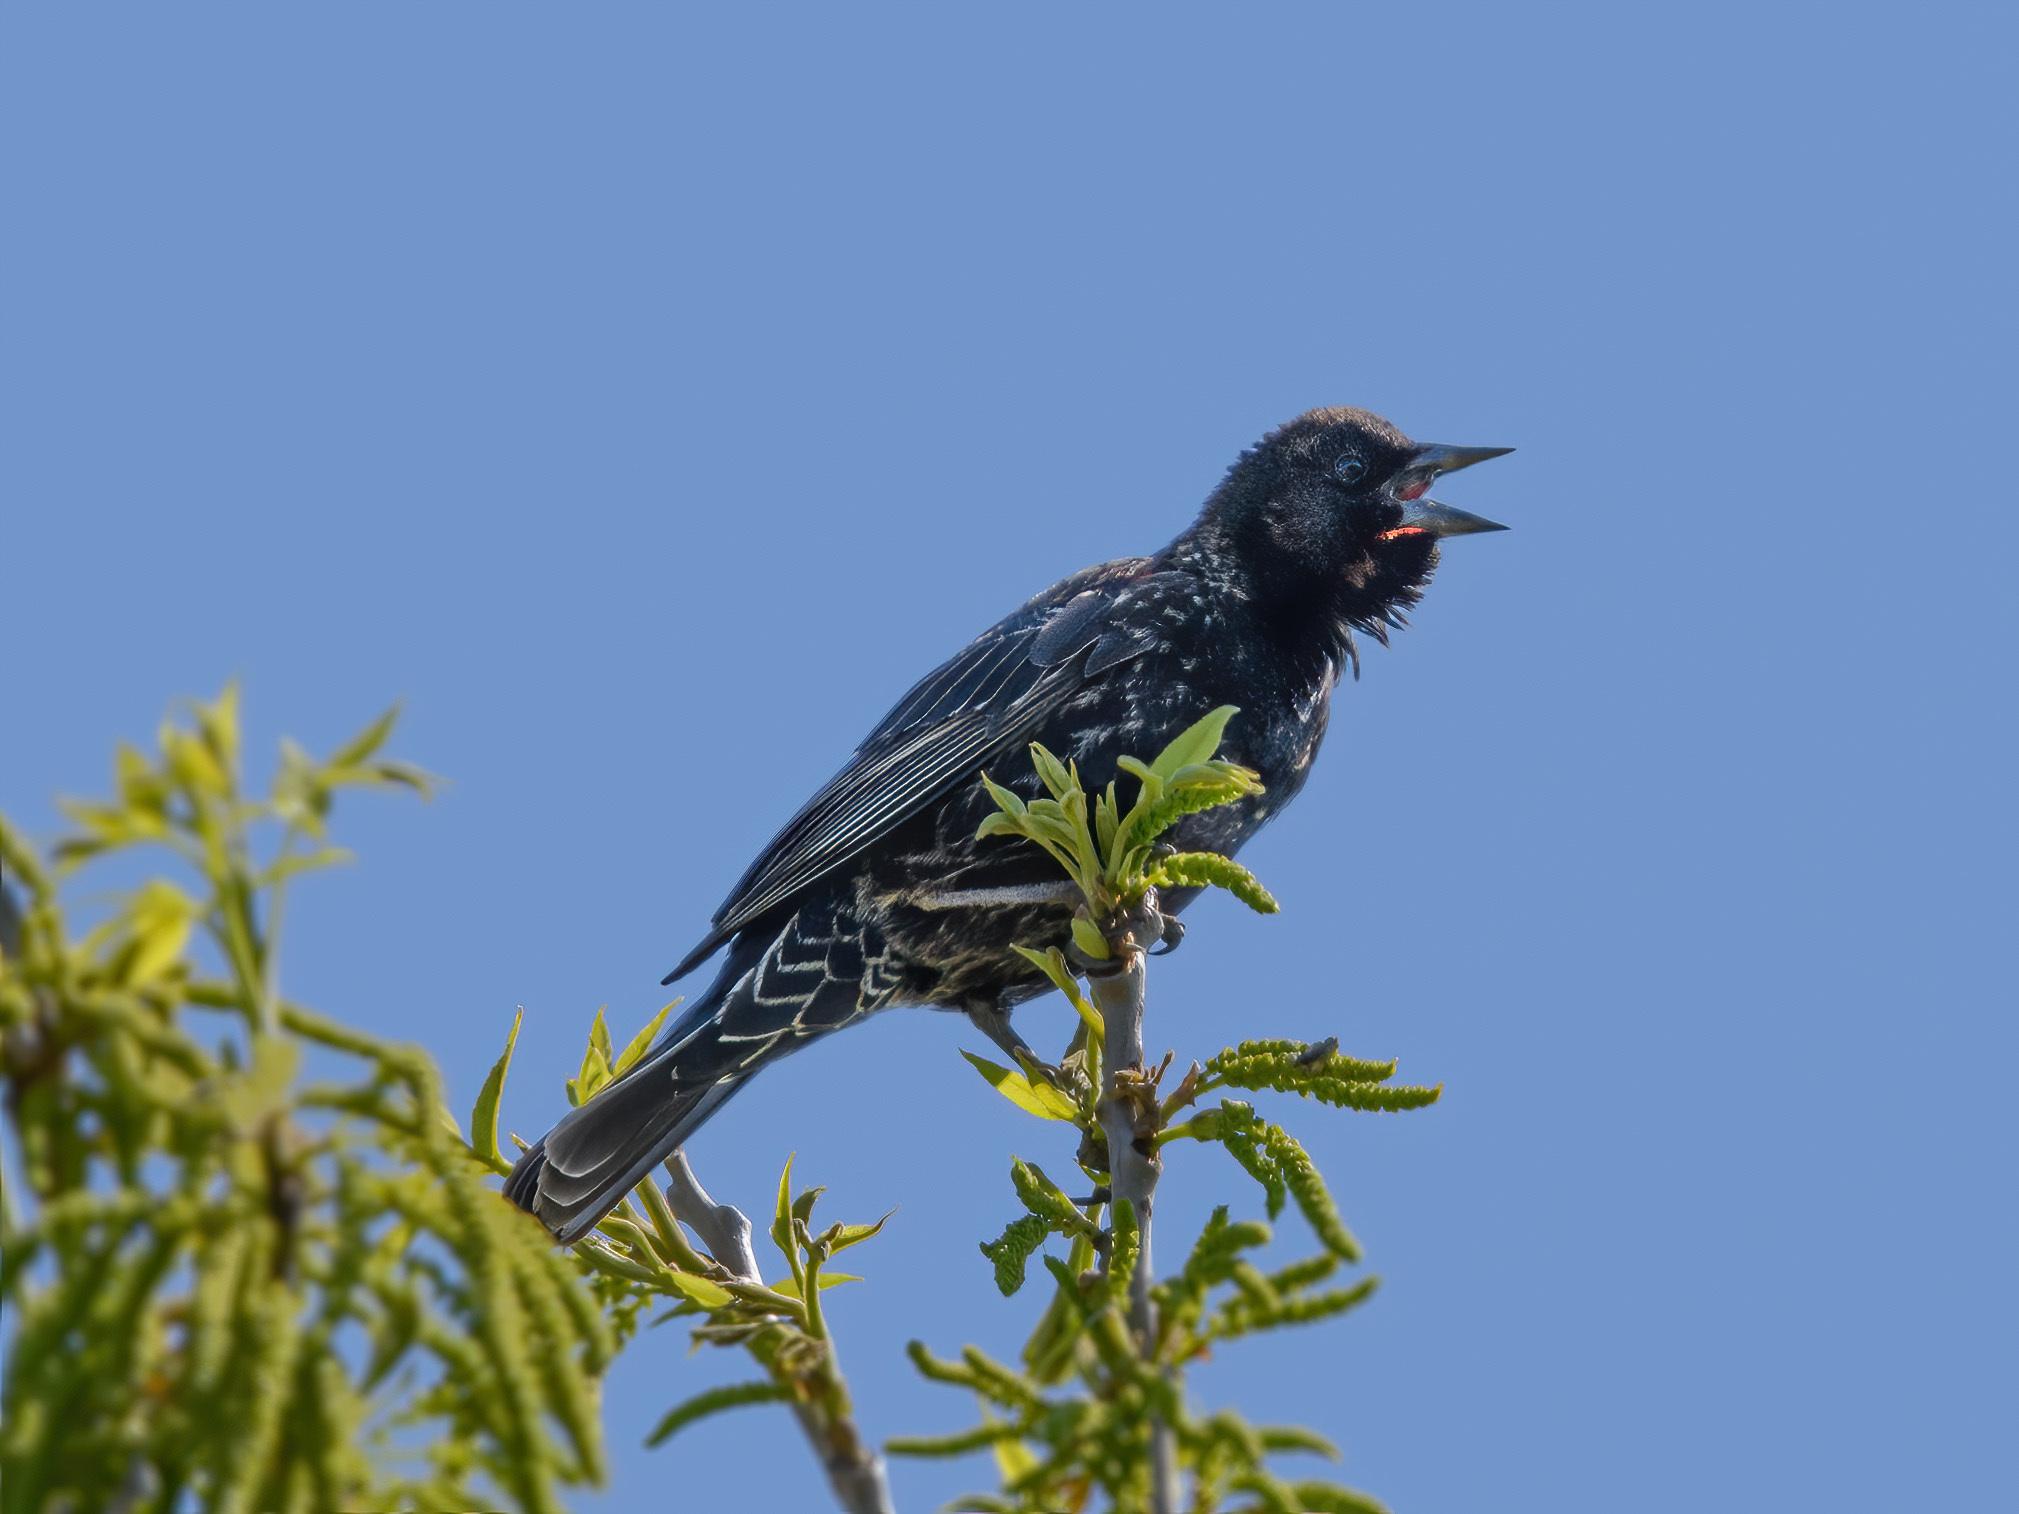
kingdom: Animalia
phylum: Chordata
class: Aves
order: Passeriformes
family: Icteridae
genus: Agelaius
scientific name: Agelaius phoeniceus
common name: Red-winged blackbird
